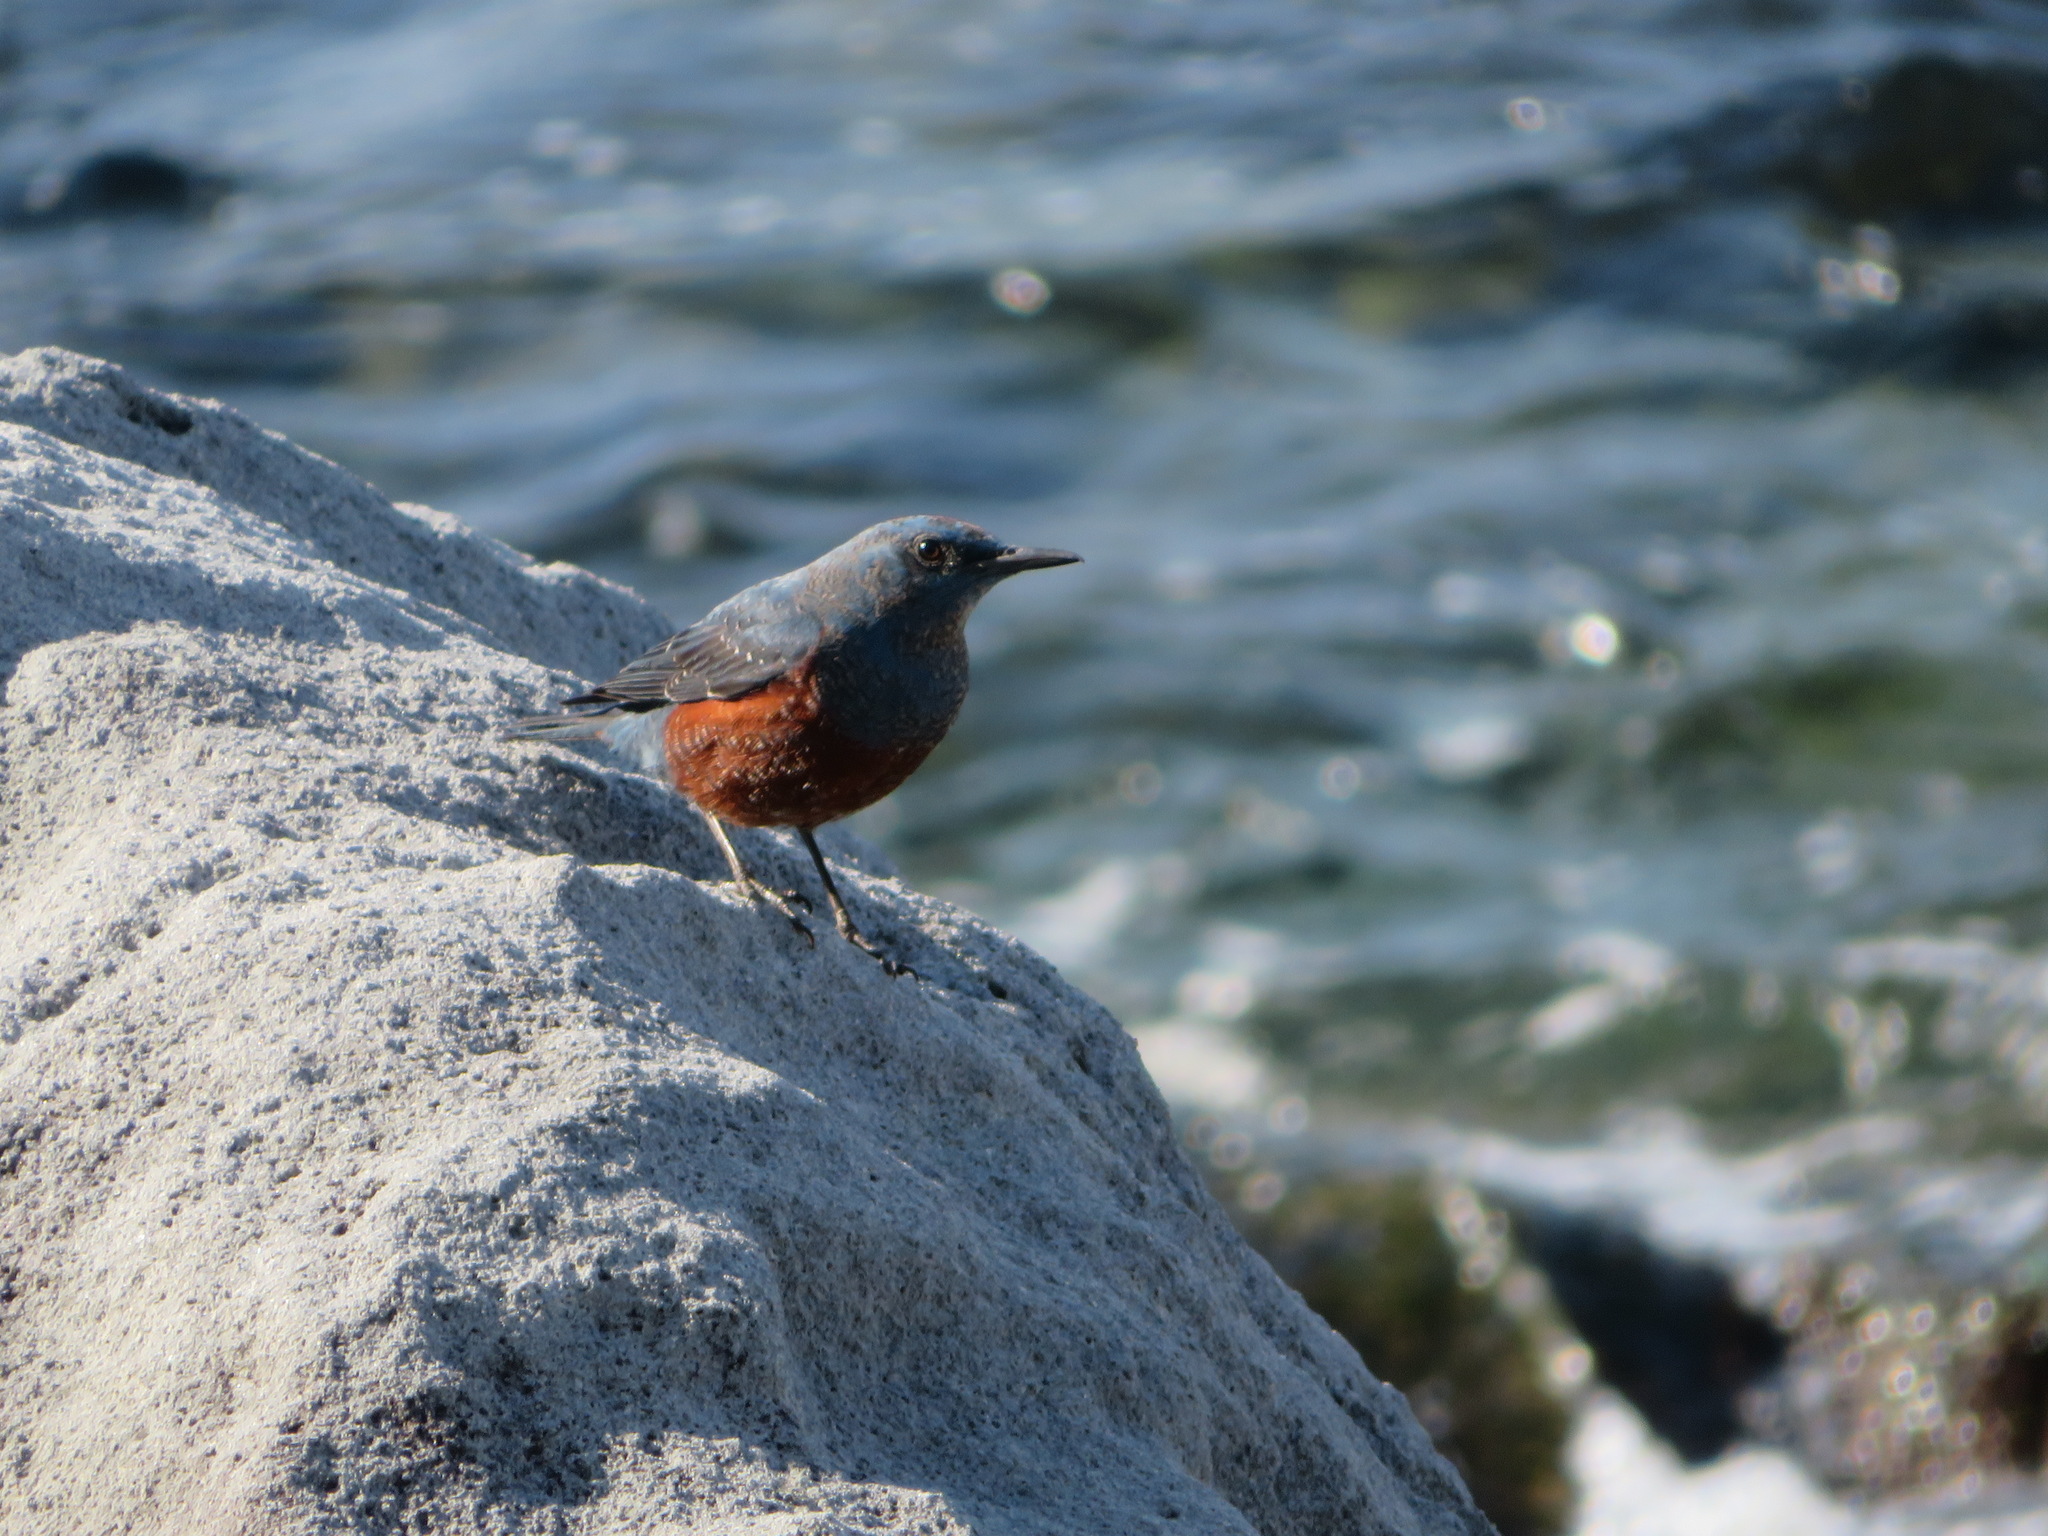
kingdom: Animalia
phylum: Chordata
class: Aves
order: Passeriformes
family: Muscicapidae
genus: Monticola
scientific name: Monticola solitarius
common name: Blue rock thrush
